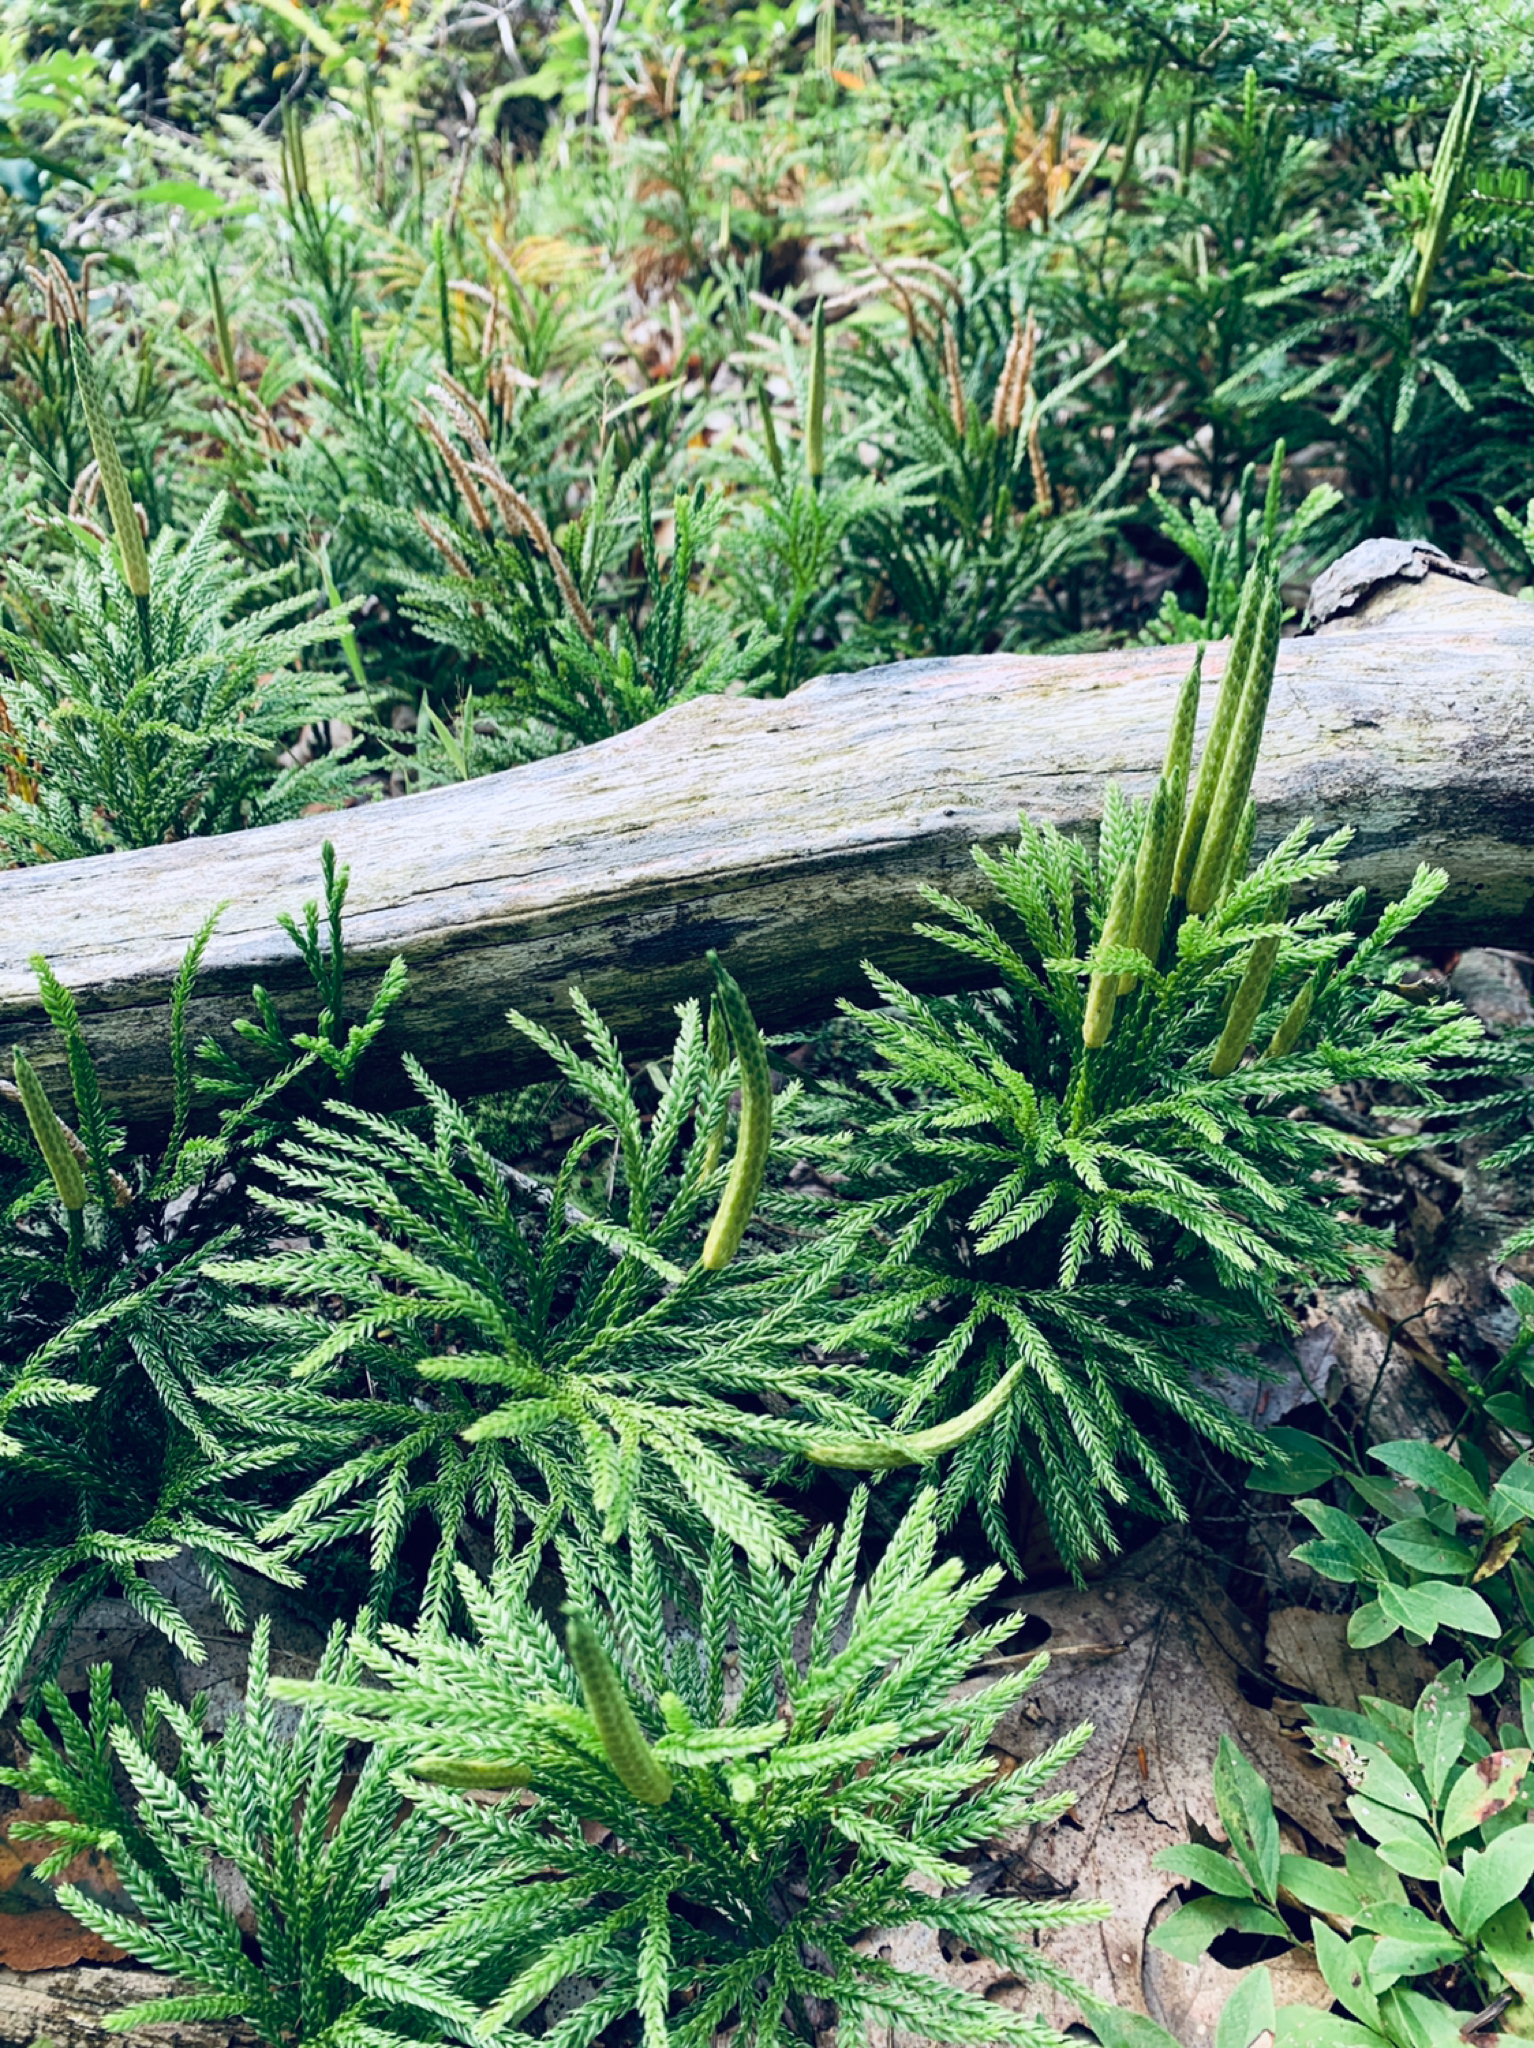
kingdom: Plantae
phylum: Tracheophyta
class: Lycopodiopsida
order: Lycopodiales
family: Lycopodiaceae
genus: Dendrolycopodium
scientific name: Dendrolycopodium obscurum
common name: Common ground-pine
